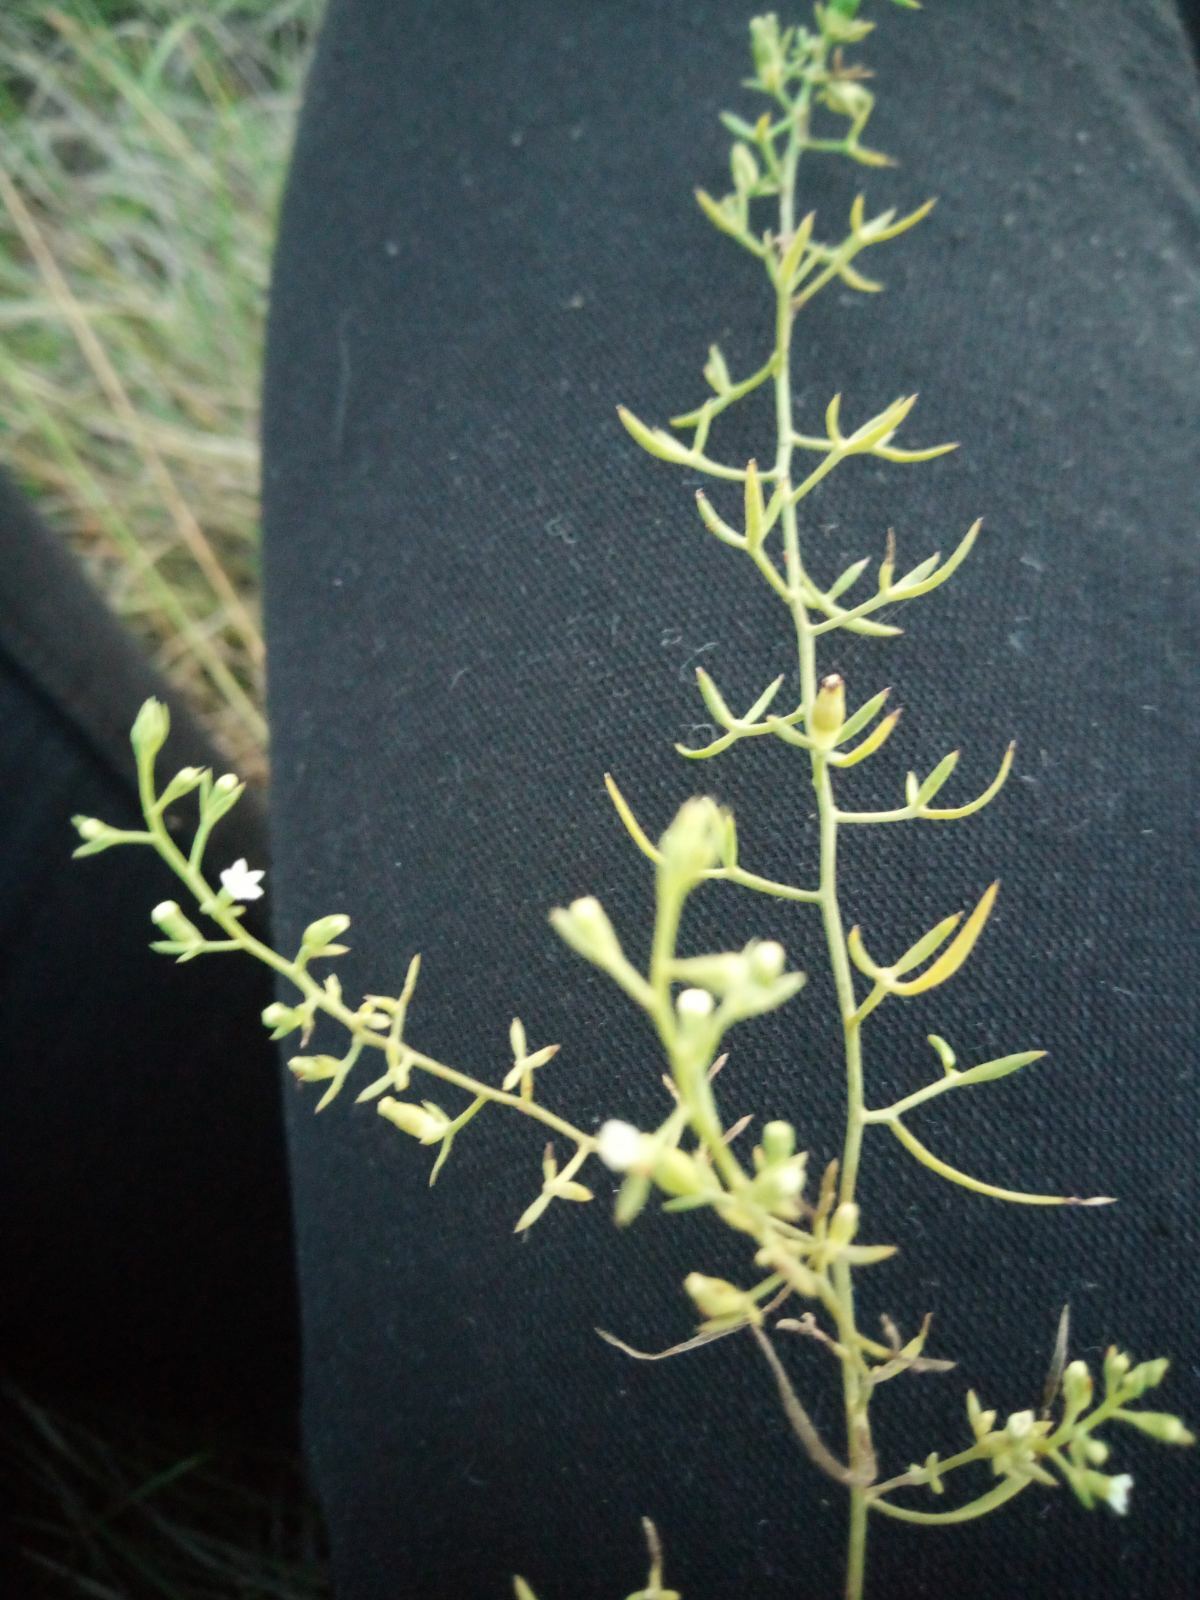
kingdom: Plantae
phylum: Tracheophyta
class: Magnoliopsida
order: Santalales
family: Thesiaceae
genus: Thesium
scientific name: Thesium ramosum
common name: Field thesium
